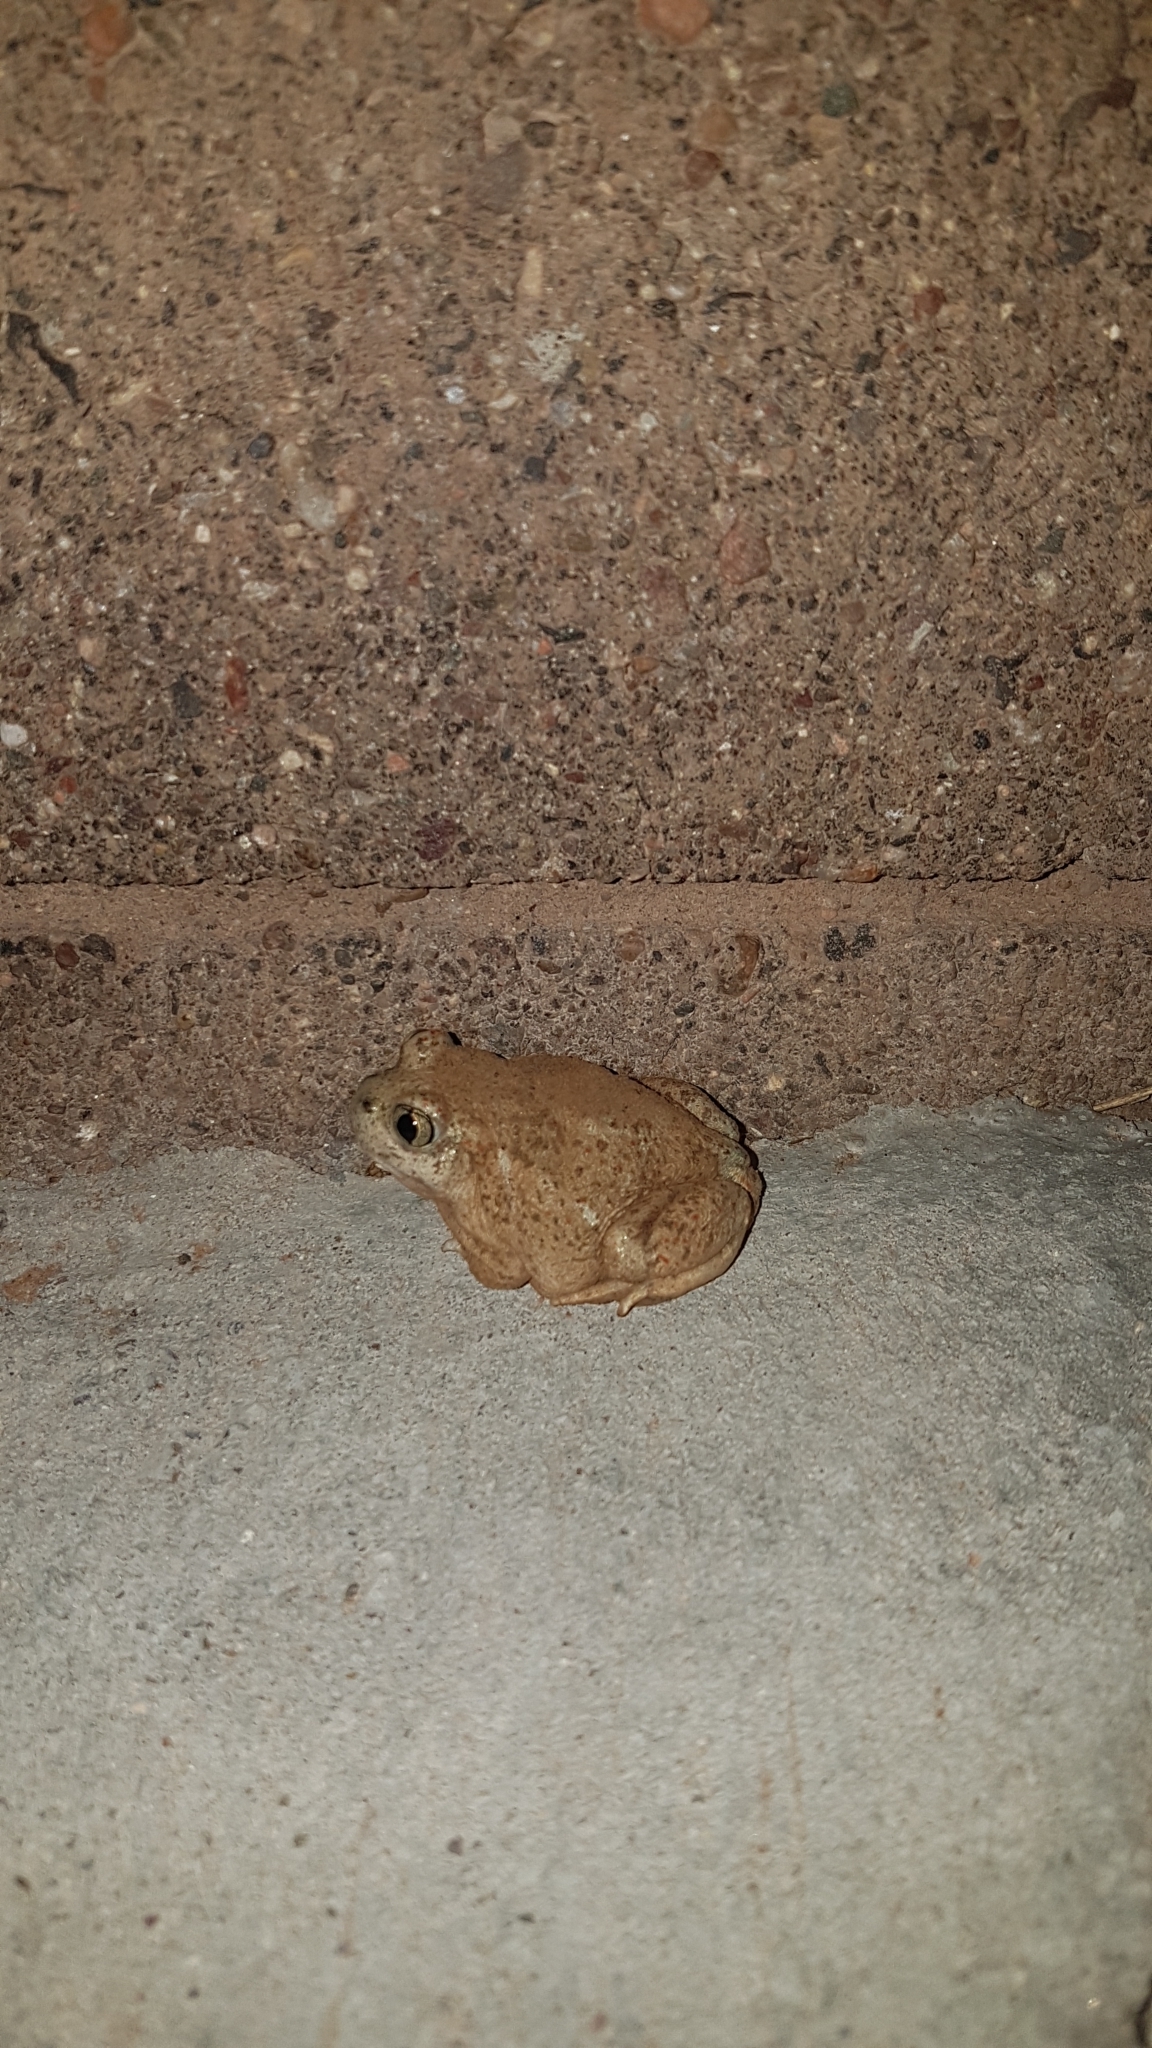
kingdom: Animalia
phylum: Chordata
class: Amphibia
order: Anura
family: Scaphiopodidae
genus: Spea
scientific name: Spea multiplicata
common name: Mexican spadefoot
